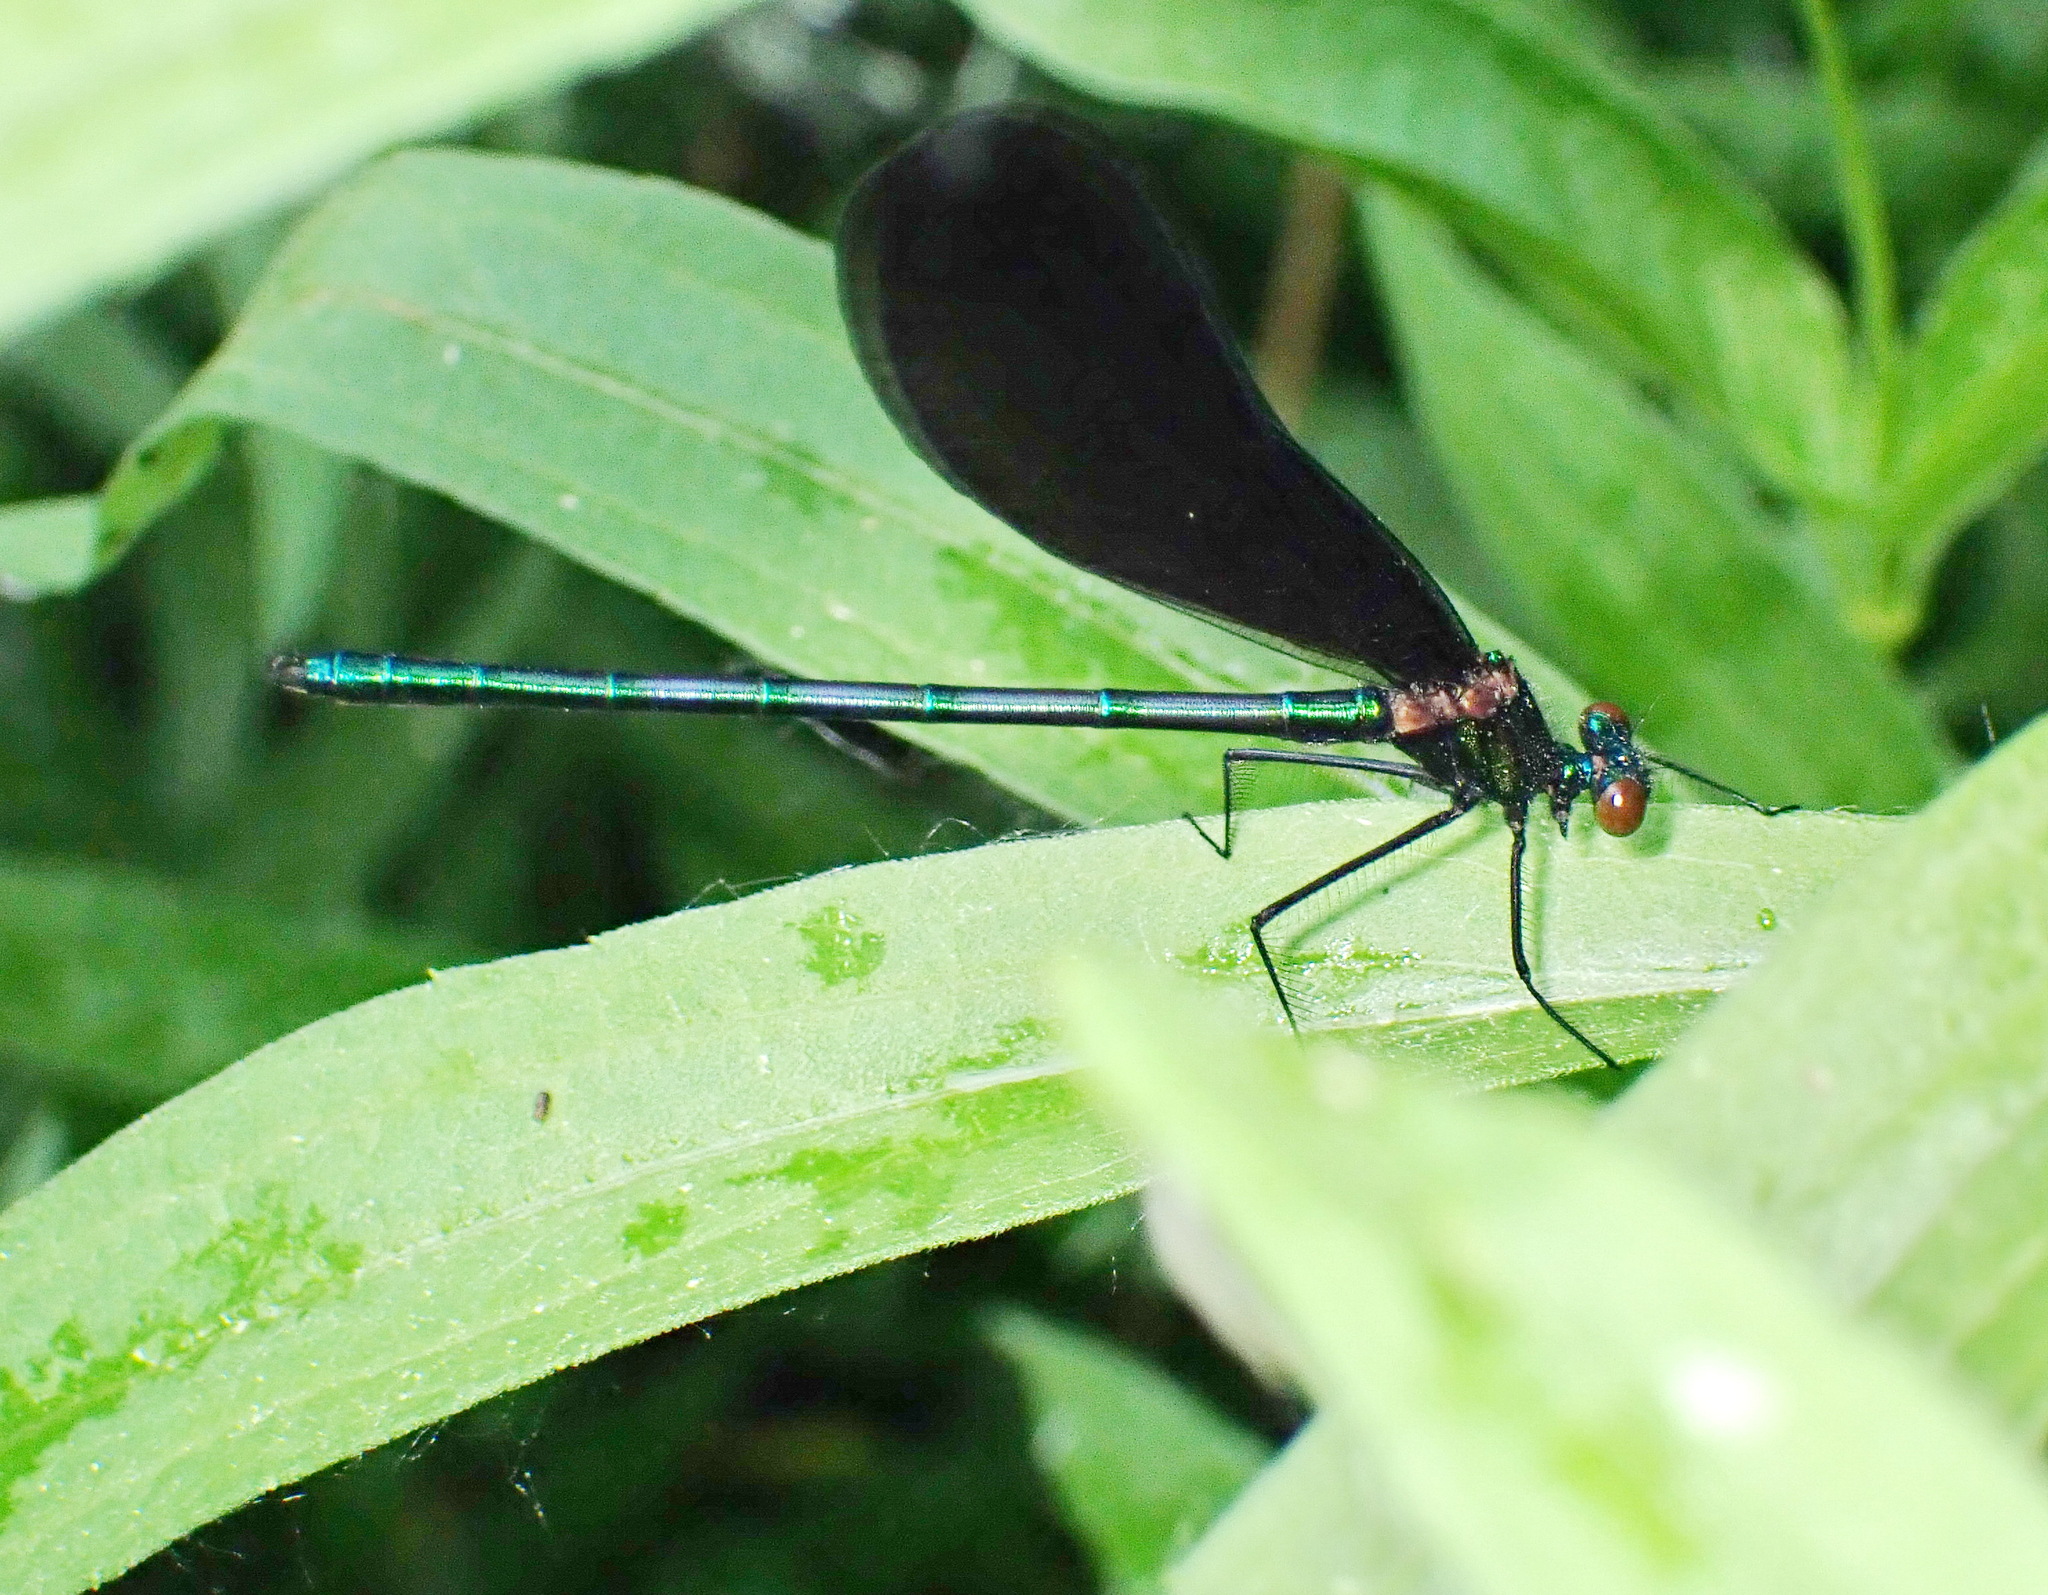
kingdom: Animalia
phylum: Arthropoda
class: Insecta
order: Odonata
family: Calopterygidae
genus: Calopteryx
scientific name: Calopteryx maculata
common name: Ebony jewelwing
